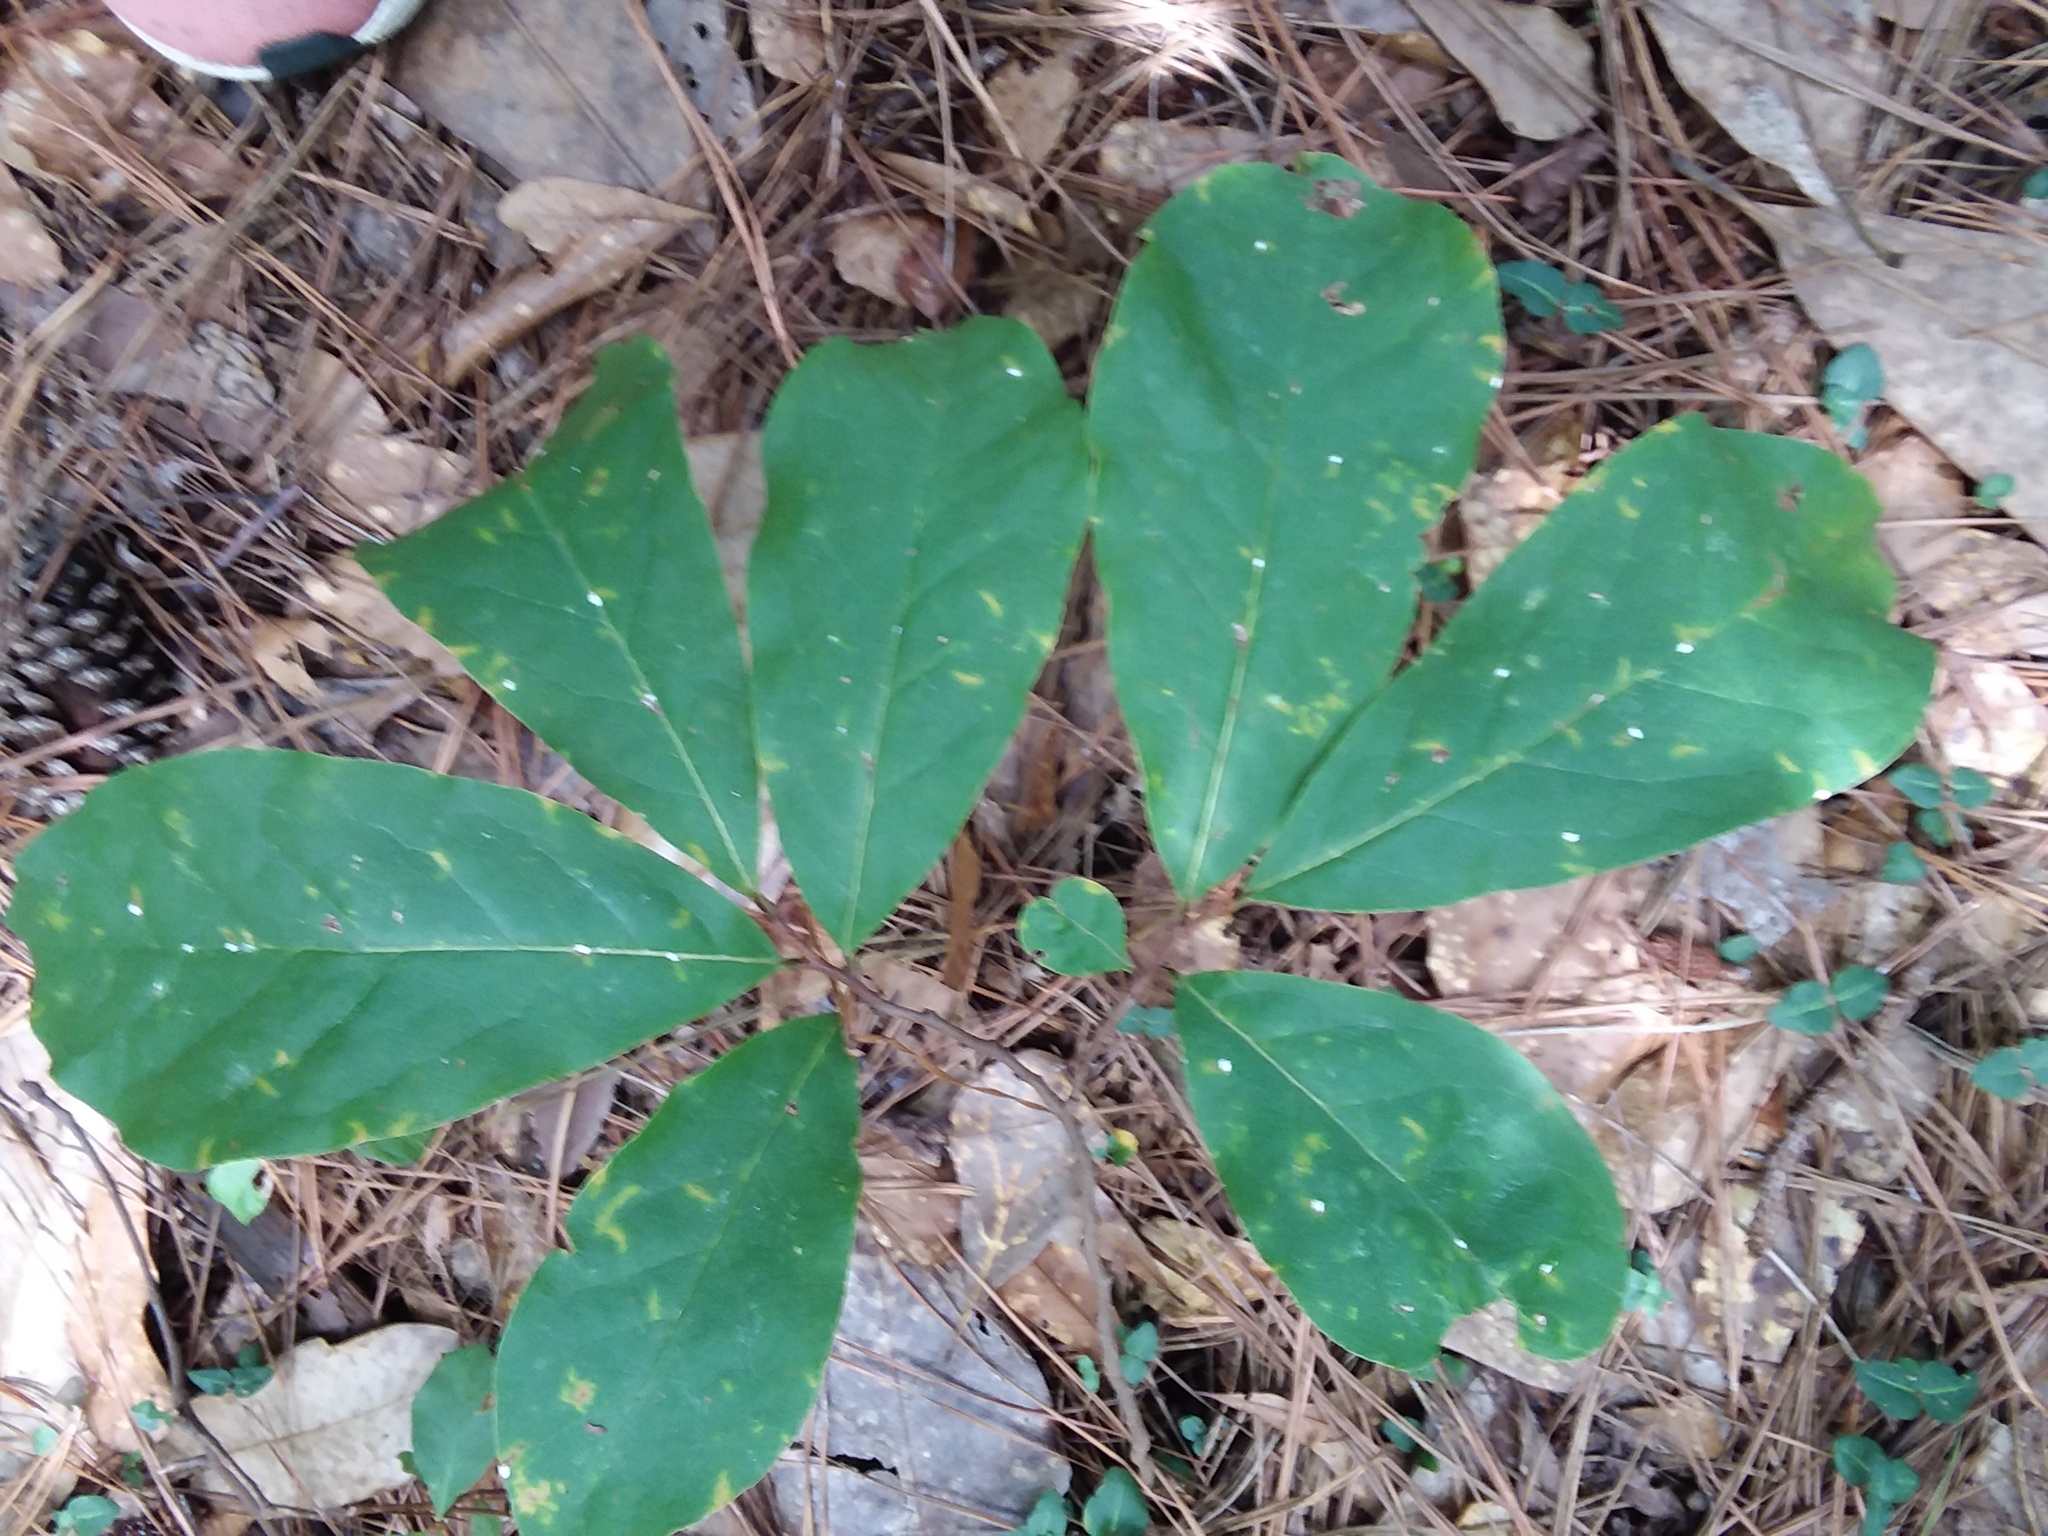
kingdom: Plantae
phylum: Tracheophyta
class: Magnoliopsida
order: Magnoliales
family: Annonaceae
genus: Asimina
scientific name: Asimina parviflora
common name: Dwarf pawpaw
